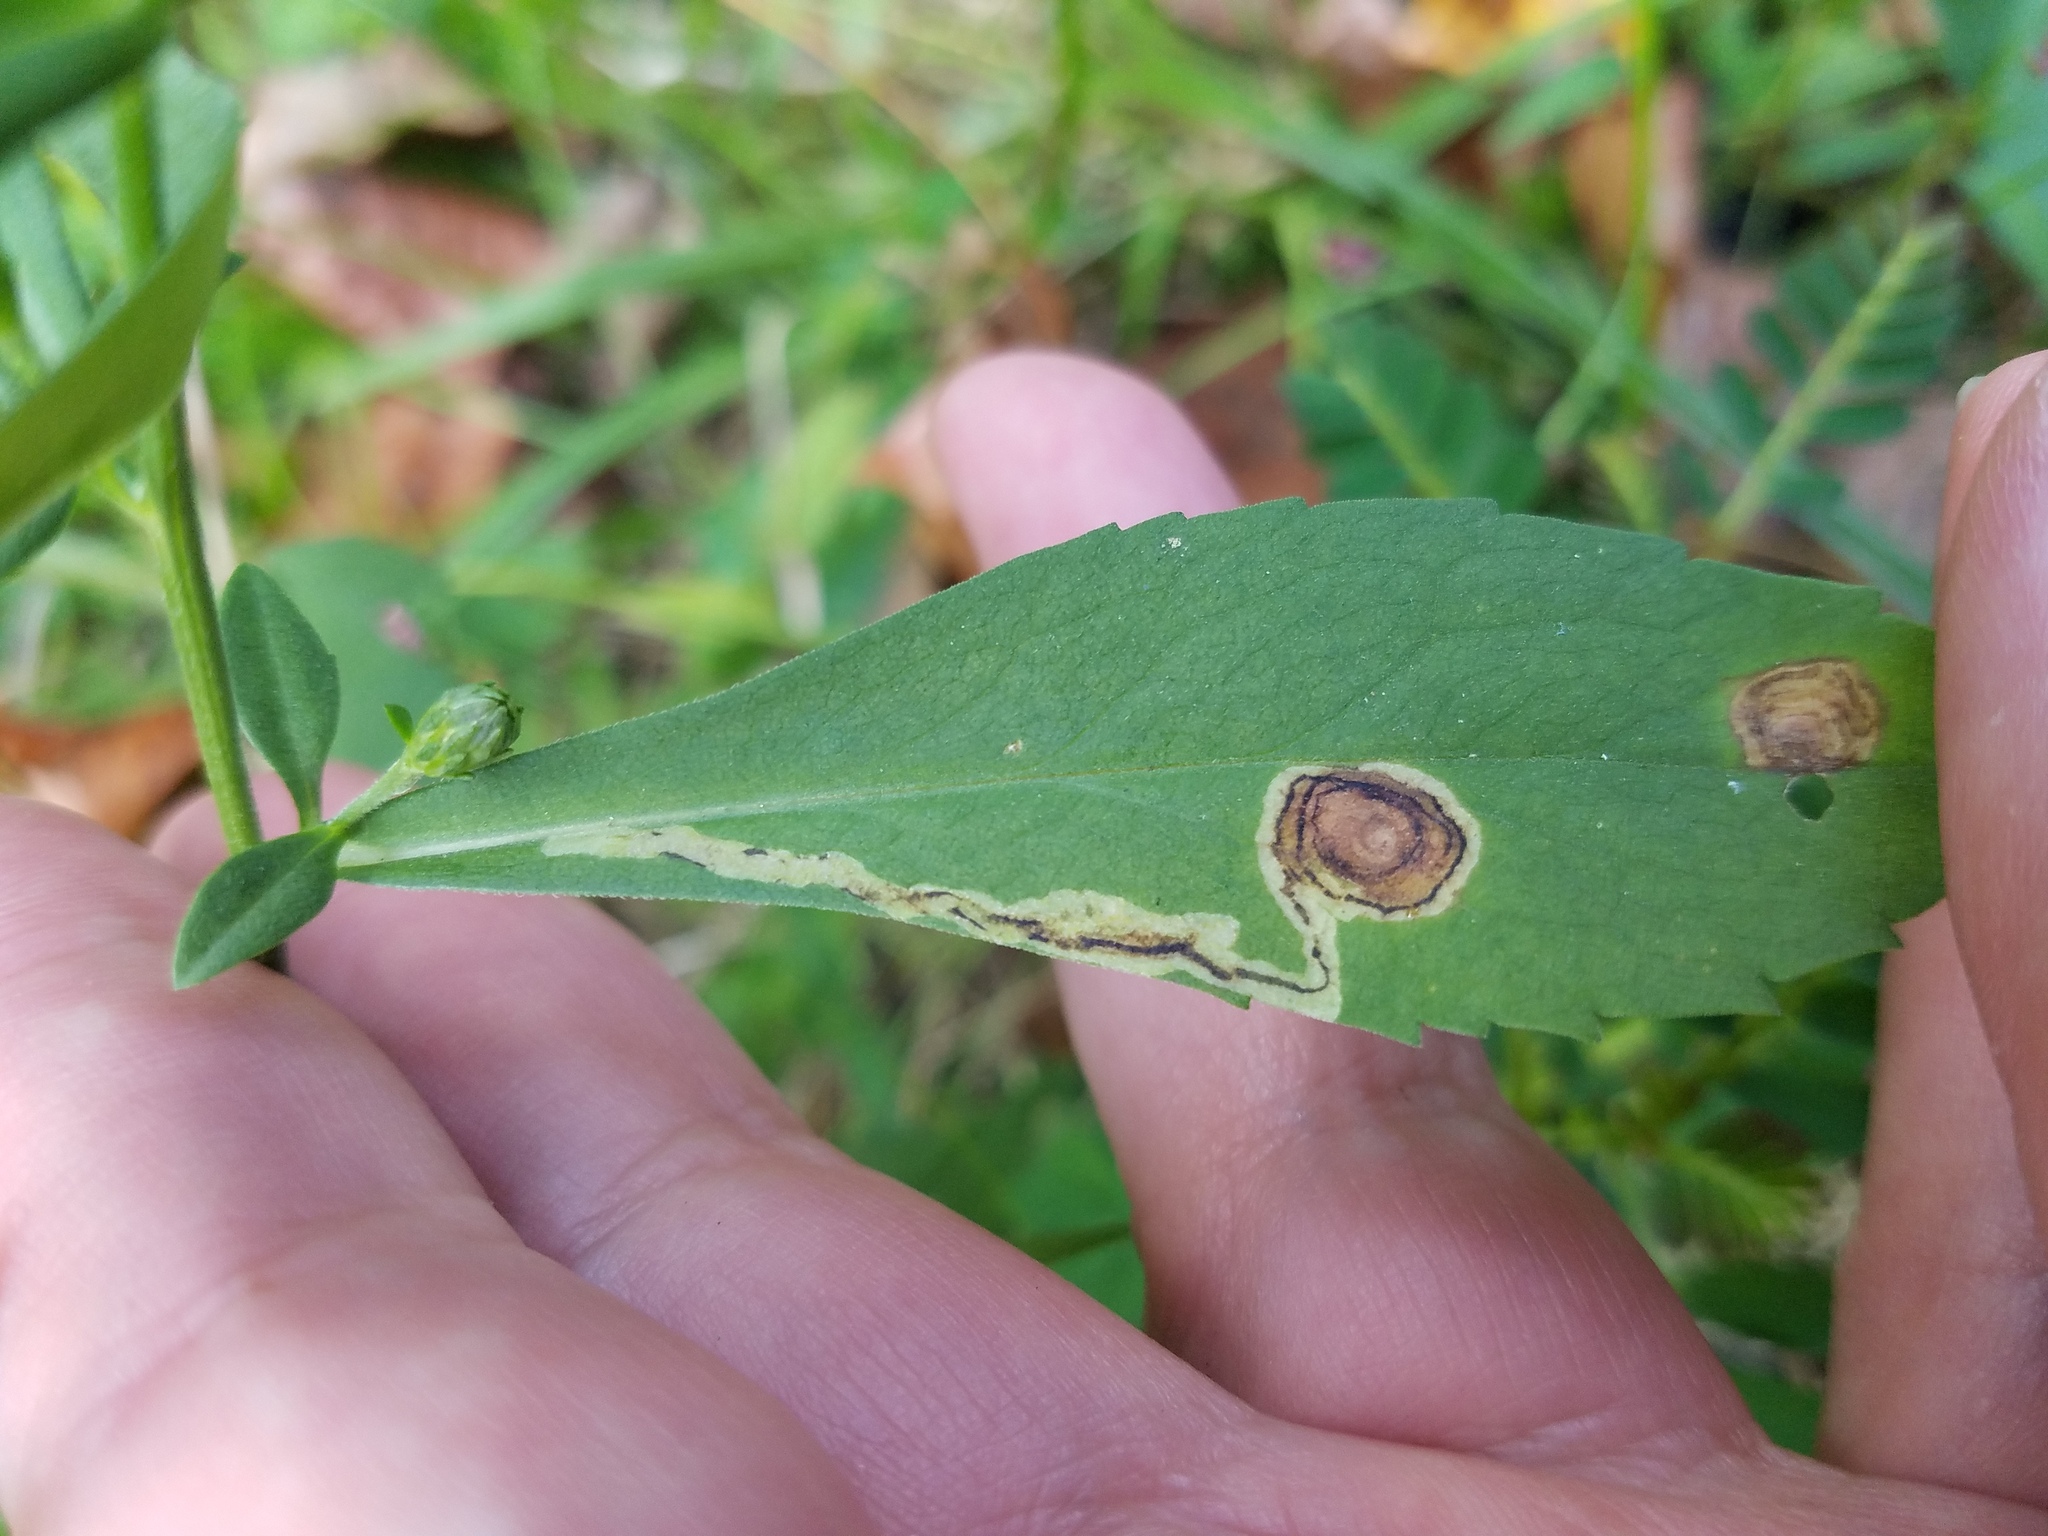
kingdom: Animalia
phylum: Arthropoda
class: Insecta
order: Diptera
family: Agromyzidae
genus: Liriomyza
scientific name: Liriomyza eupatorii
